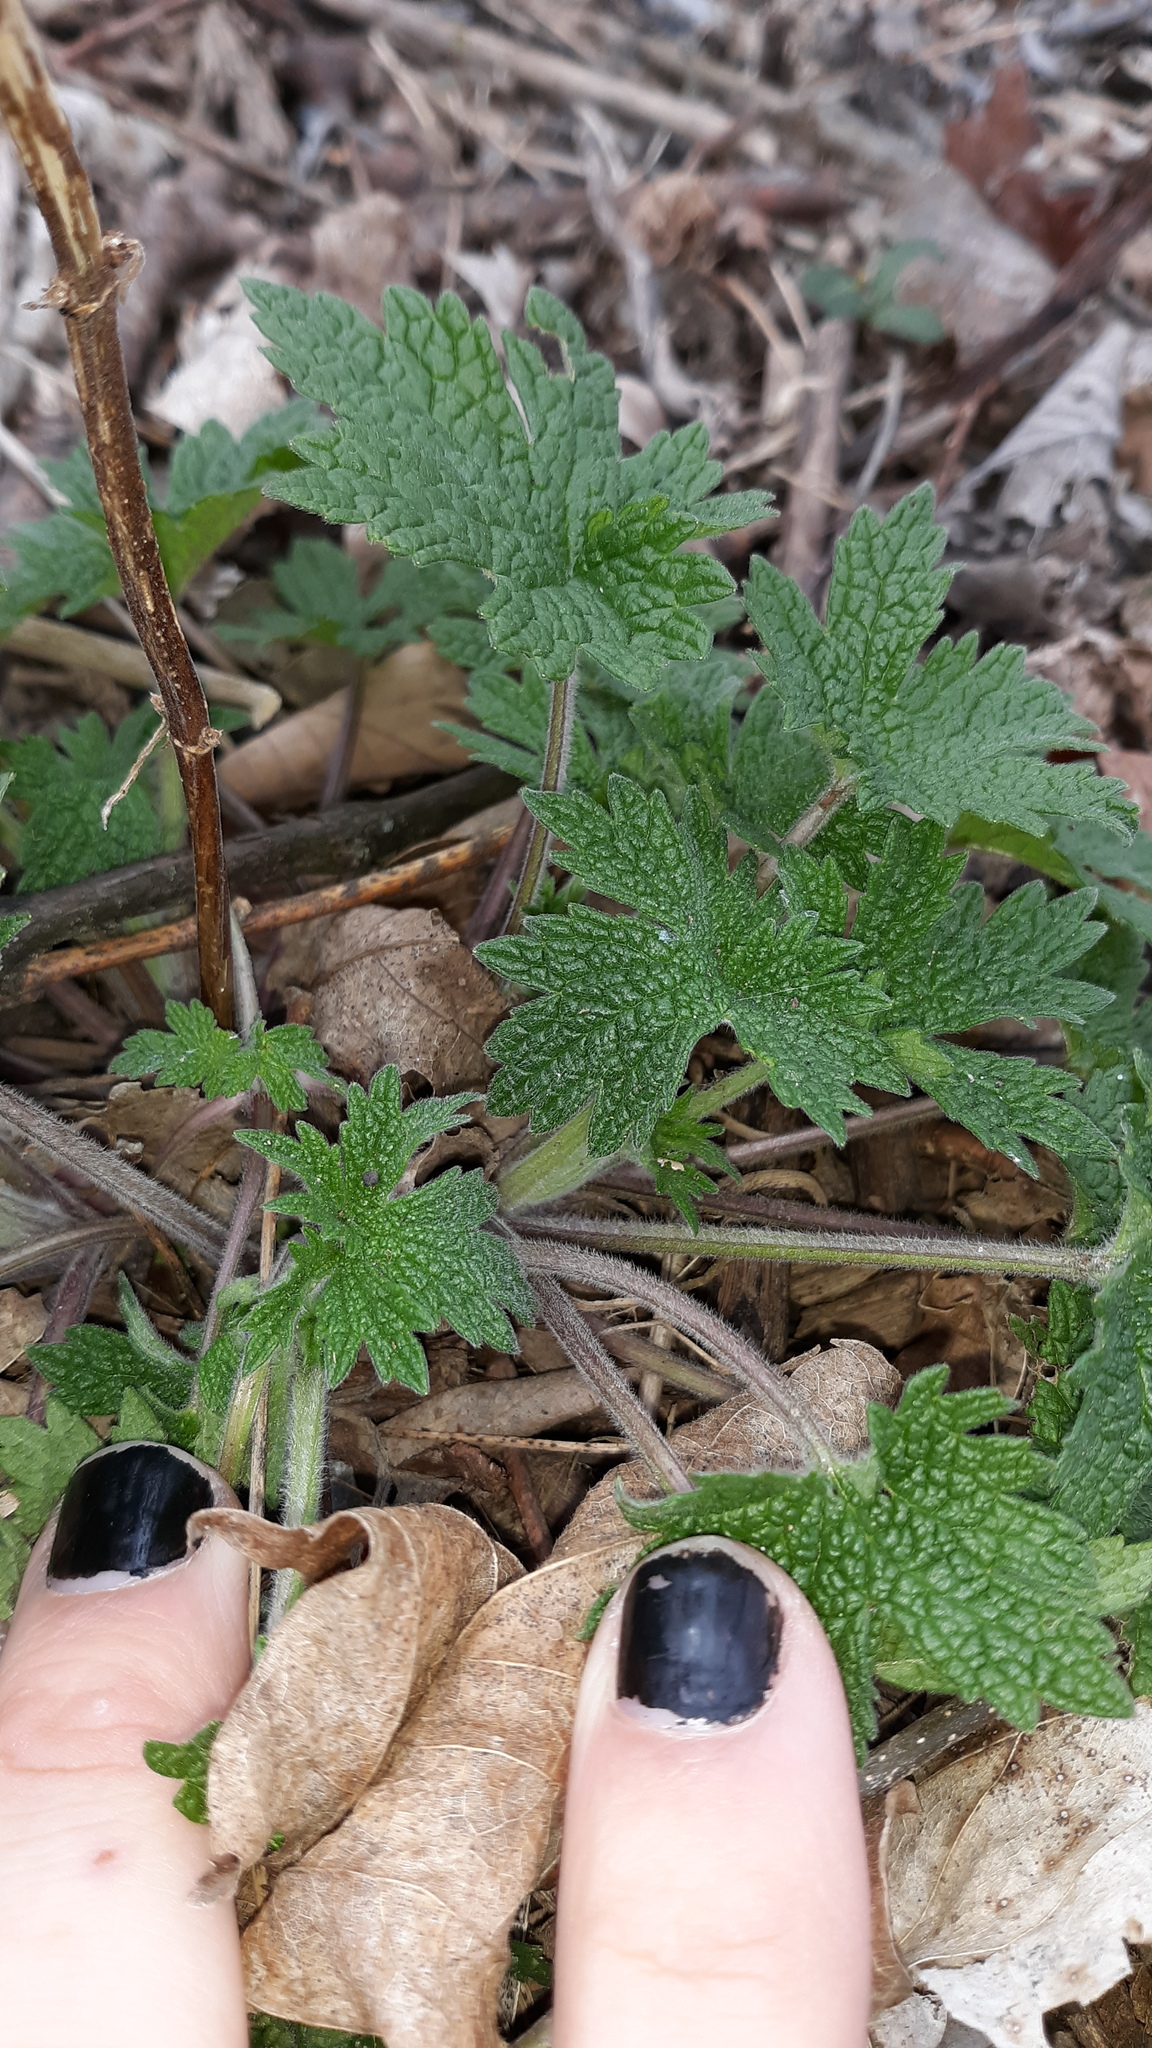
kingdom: Plantae
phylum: Tracheophyta
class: Magnoliopsida
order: Lamiales
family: Lamiaceae
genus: Leonurus
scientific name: Leonurus cardiaca
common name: Motherwort
